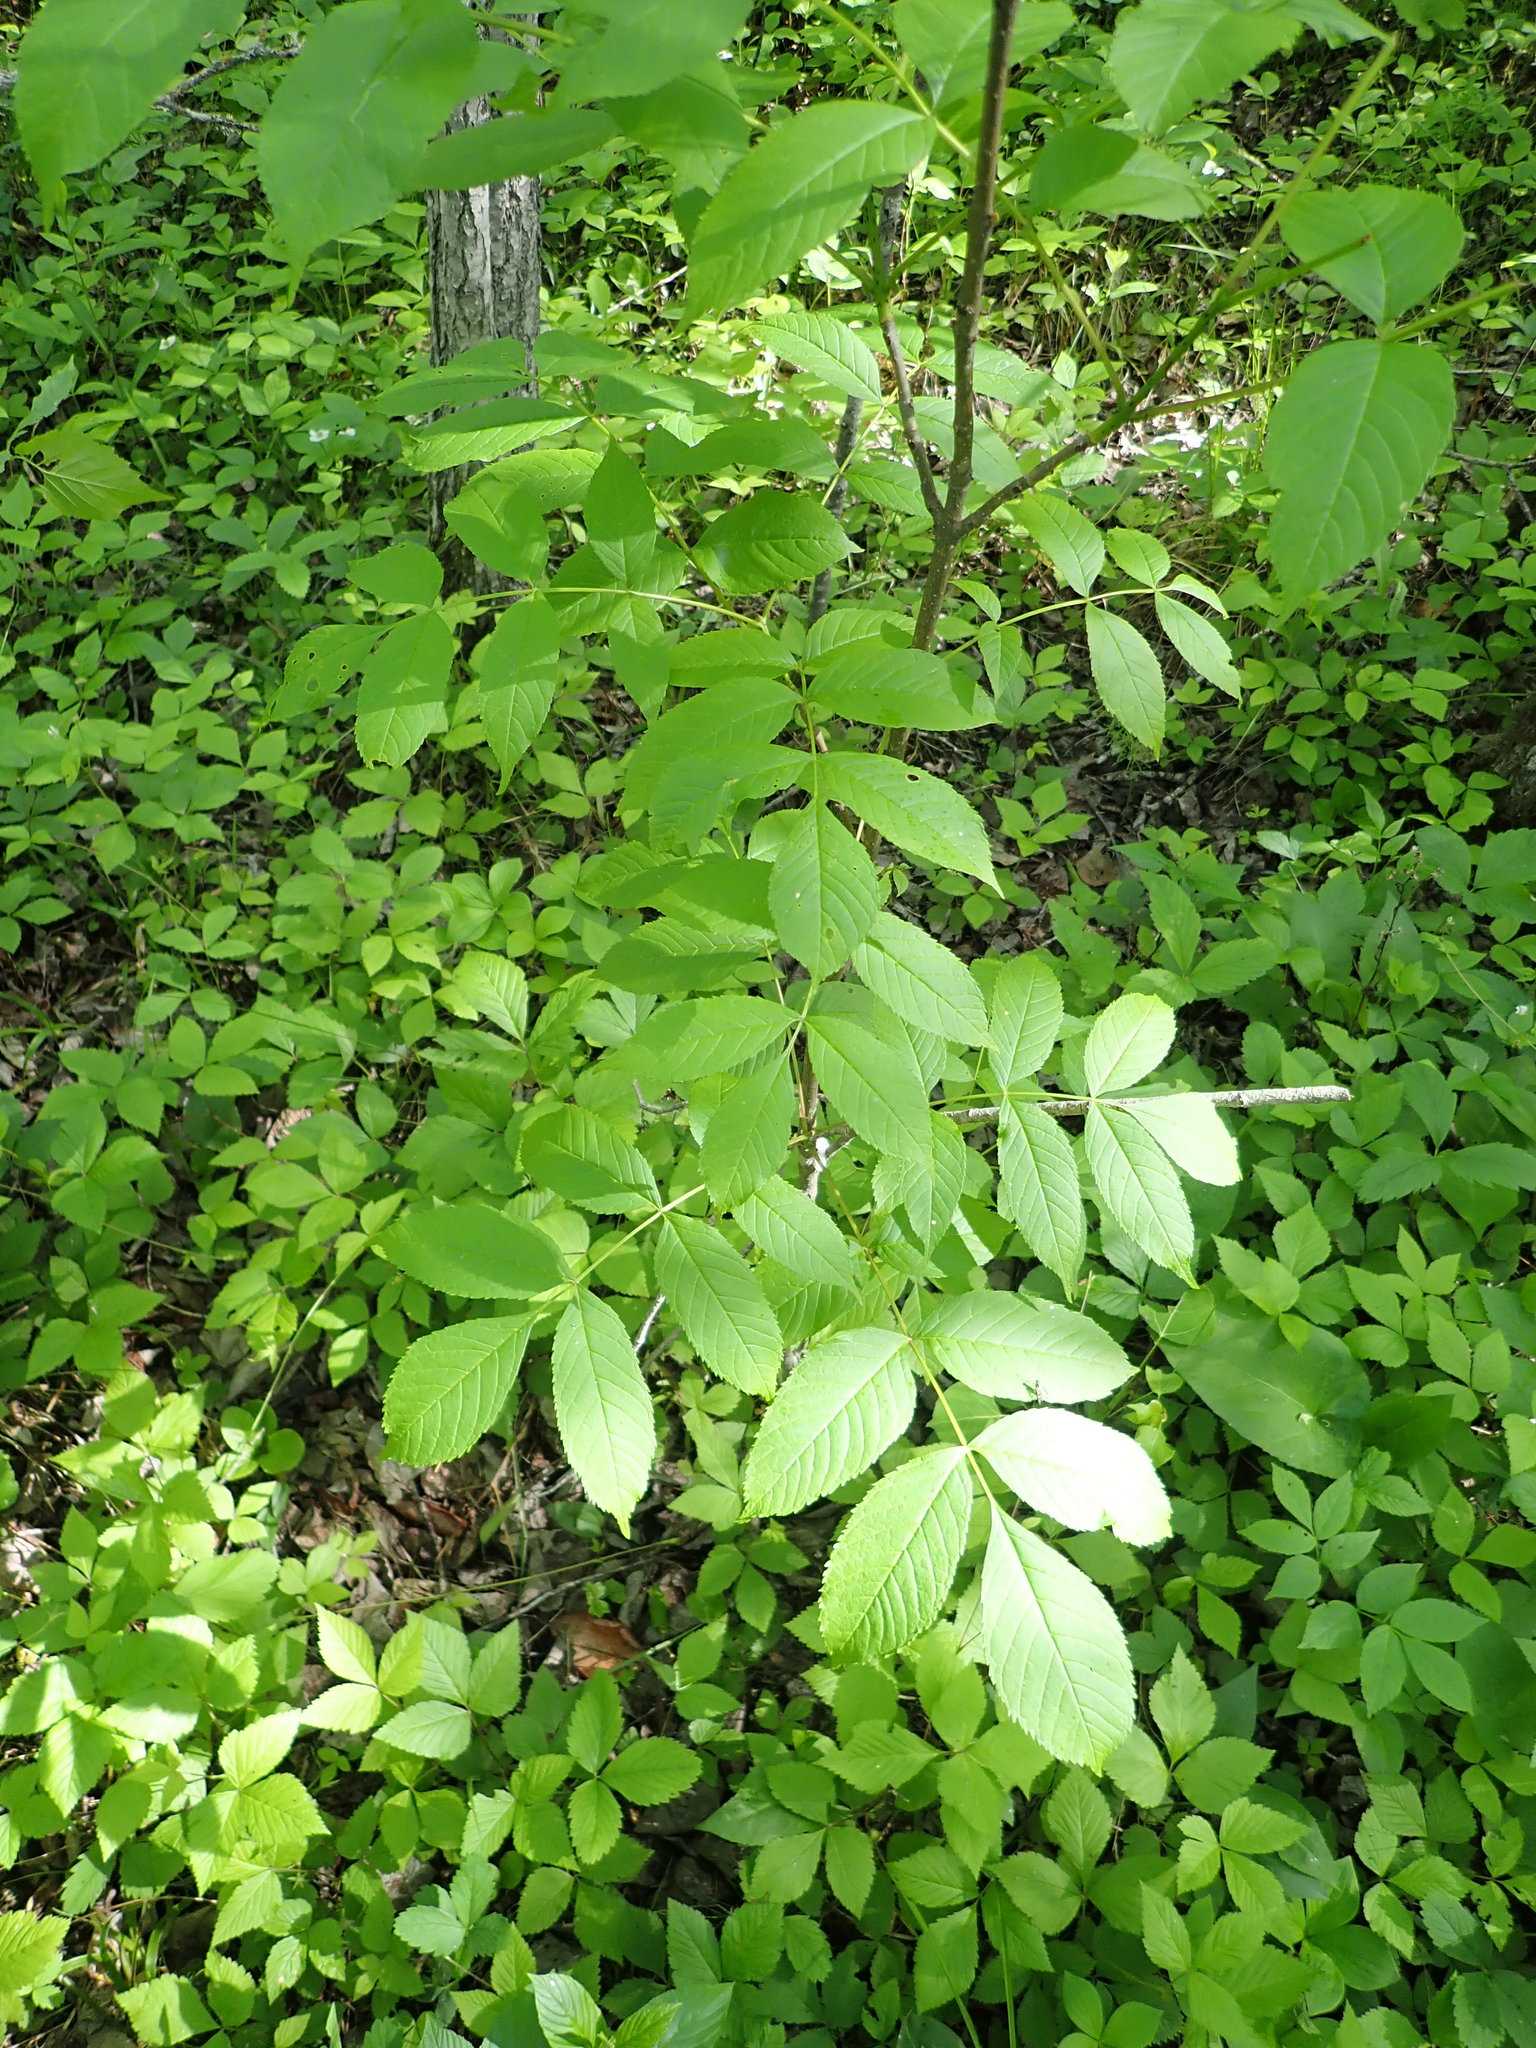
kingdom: Plantae
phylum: Tracheophyta
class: Magnoliopsida
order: Lamiales
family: Oleaceae
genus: Fraxinus
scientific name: Fraxinus nigra
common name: Black ash
